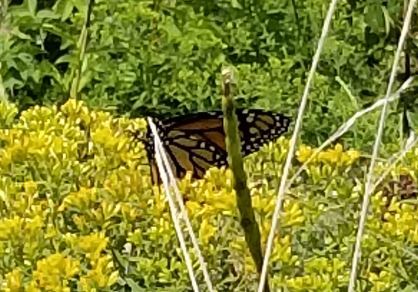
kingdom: Animalia
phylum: Arthropoda
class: Insecta
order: Lepidoptera
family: Nymphalidae
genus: Danaus
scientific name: Danaus plexippus
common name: Monarch
